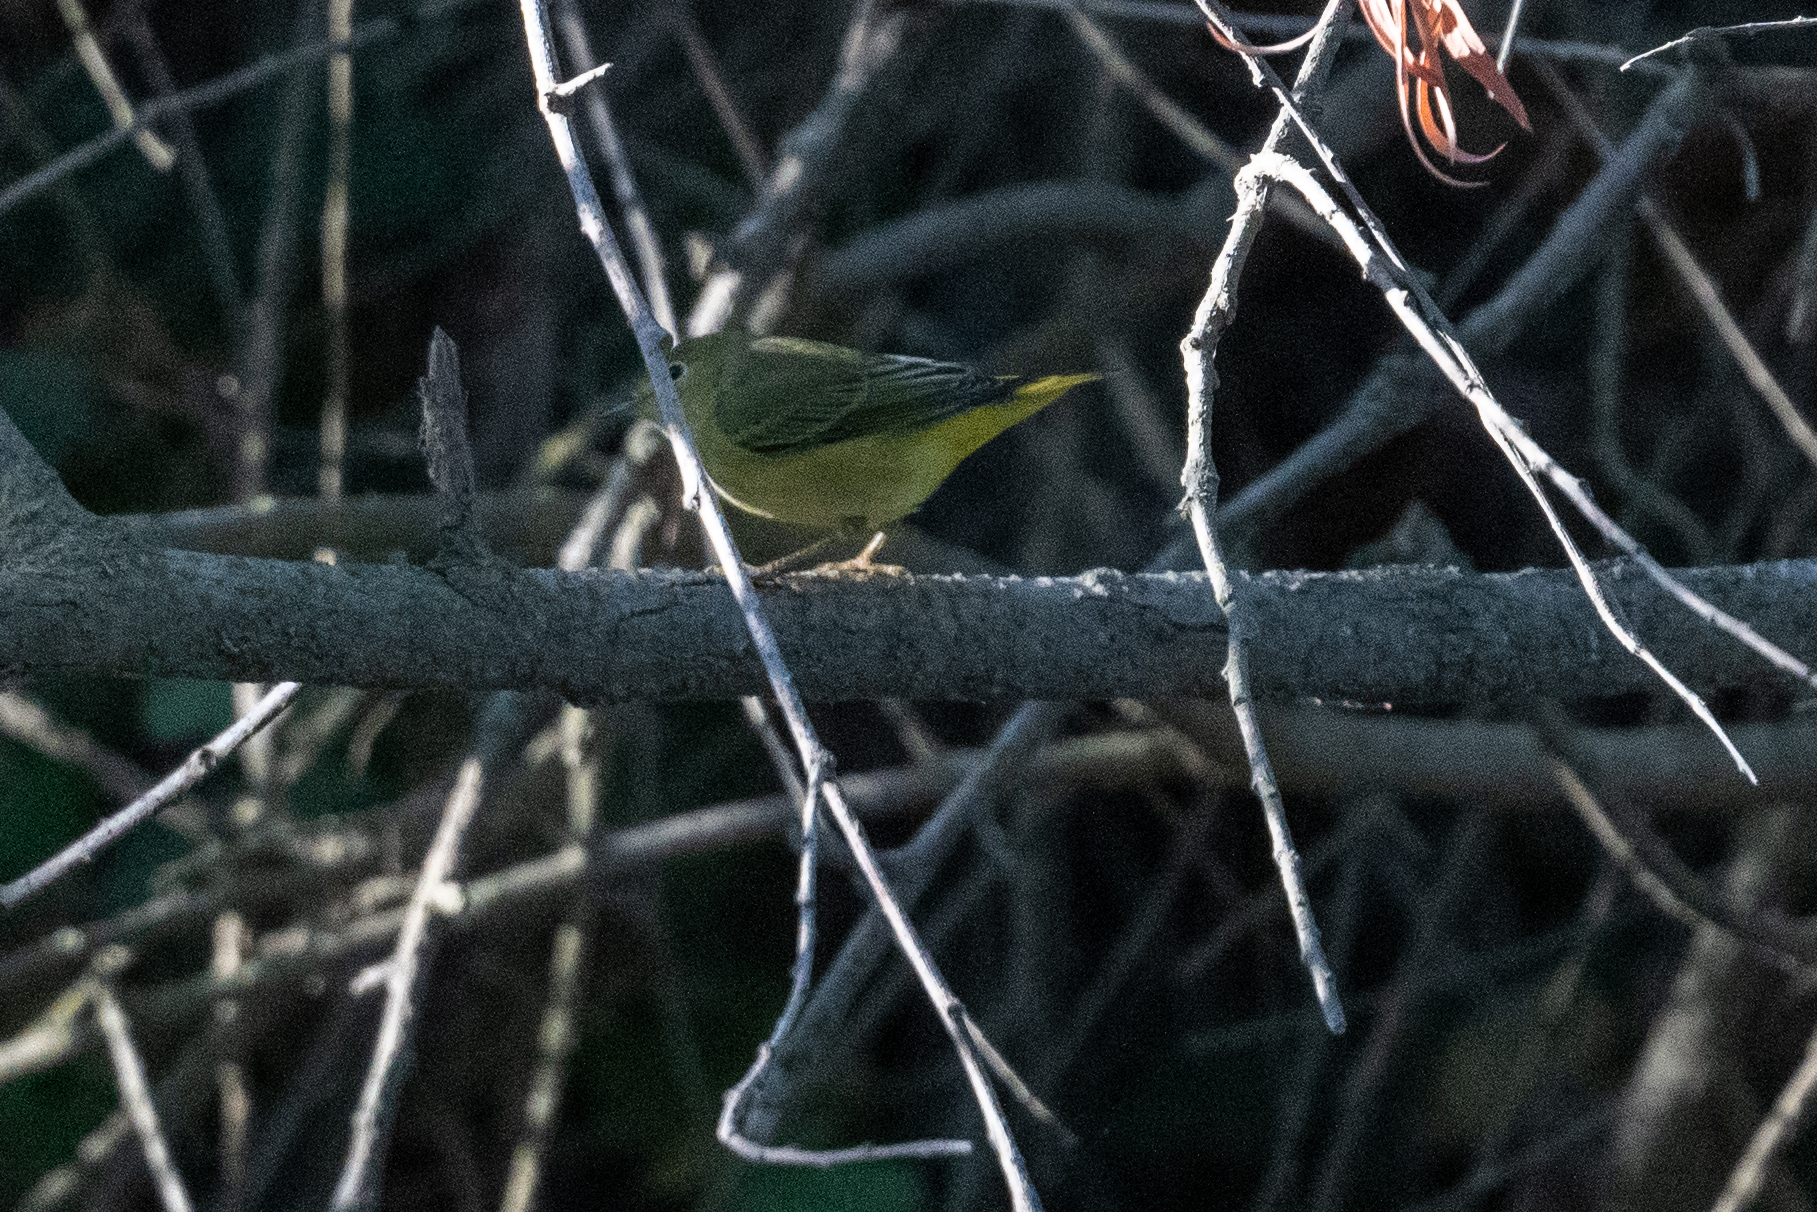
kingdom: Animalia
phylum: Chordata
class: Aves
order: Passeriformes
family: Parulidae
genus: Setophaga
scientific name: Setophaga petechia
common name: Yellow warbler
